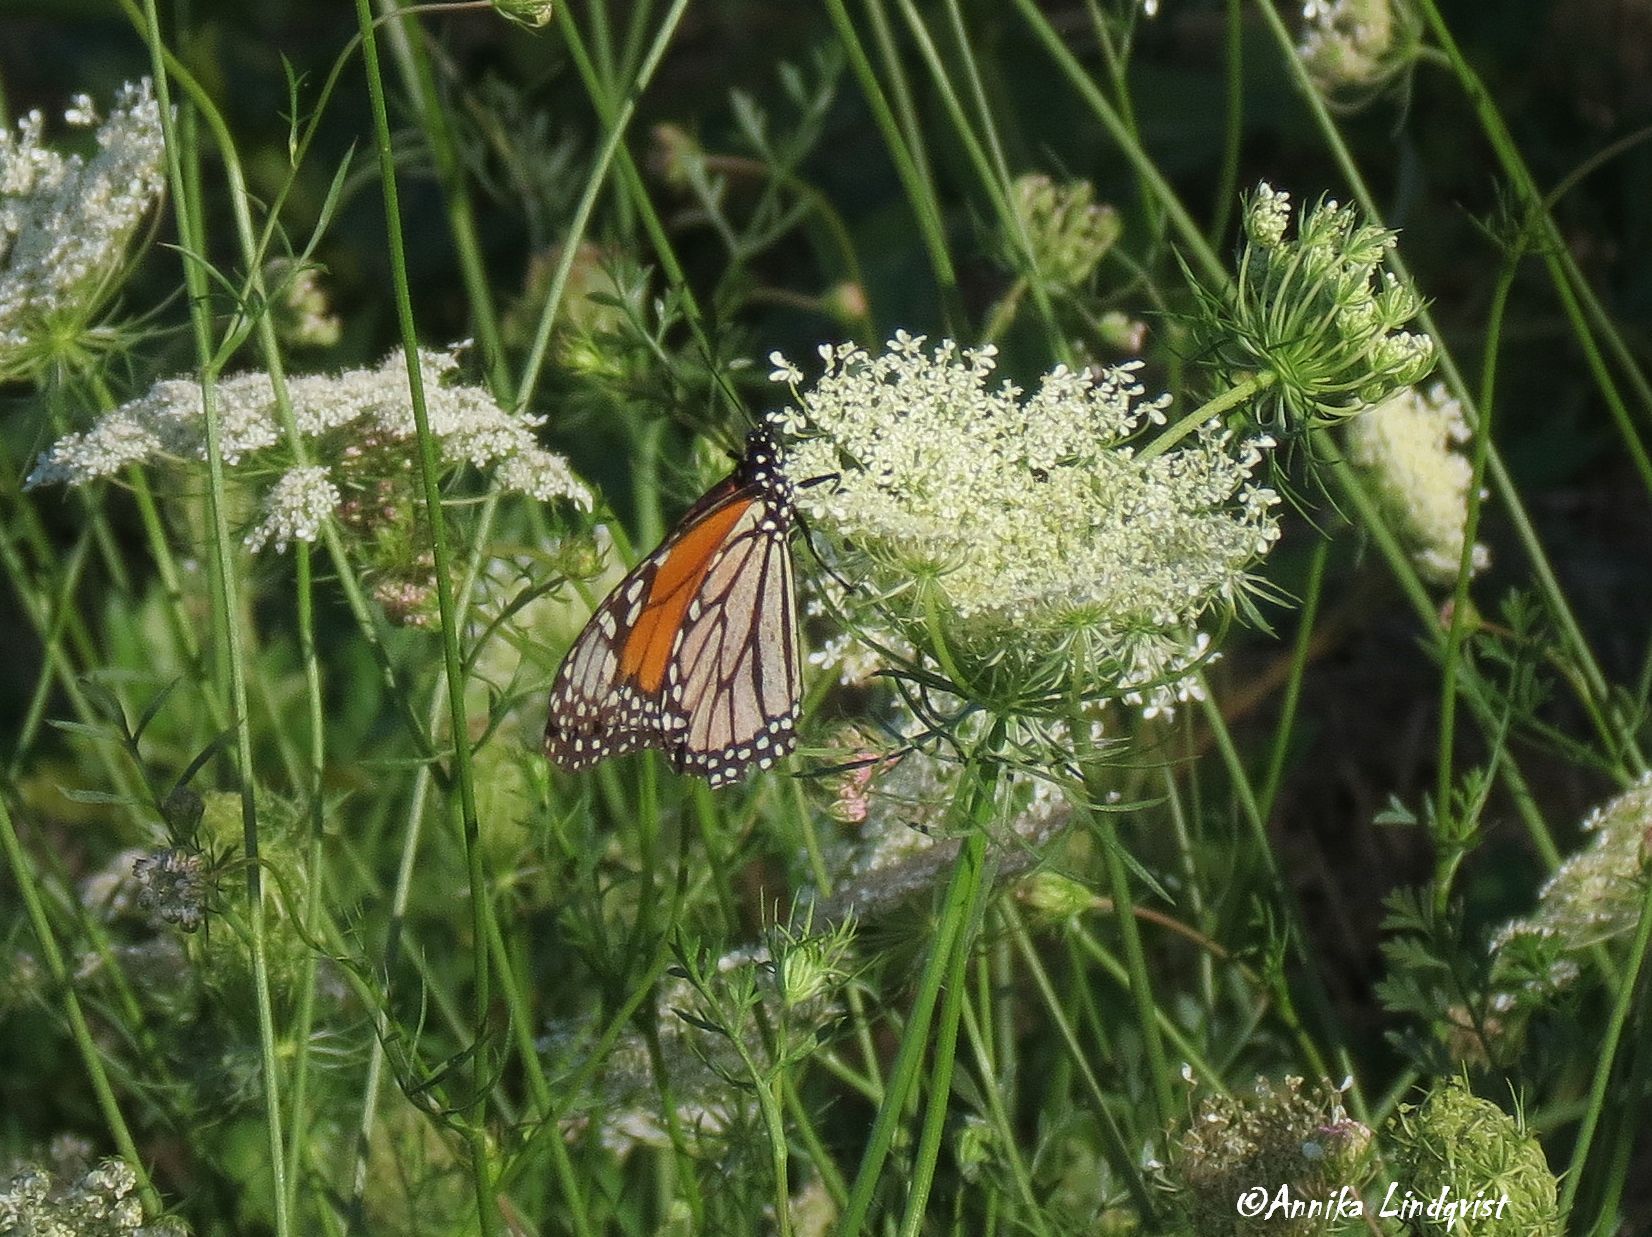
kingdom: Animalia
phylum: Arthropoda
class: Insecta
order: Lepidoptera
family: Nymphalidae
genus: Danaus
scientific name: Danaus plexippus
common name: Monarch
